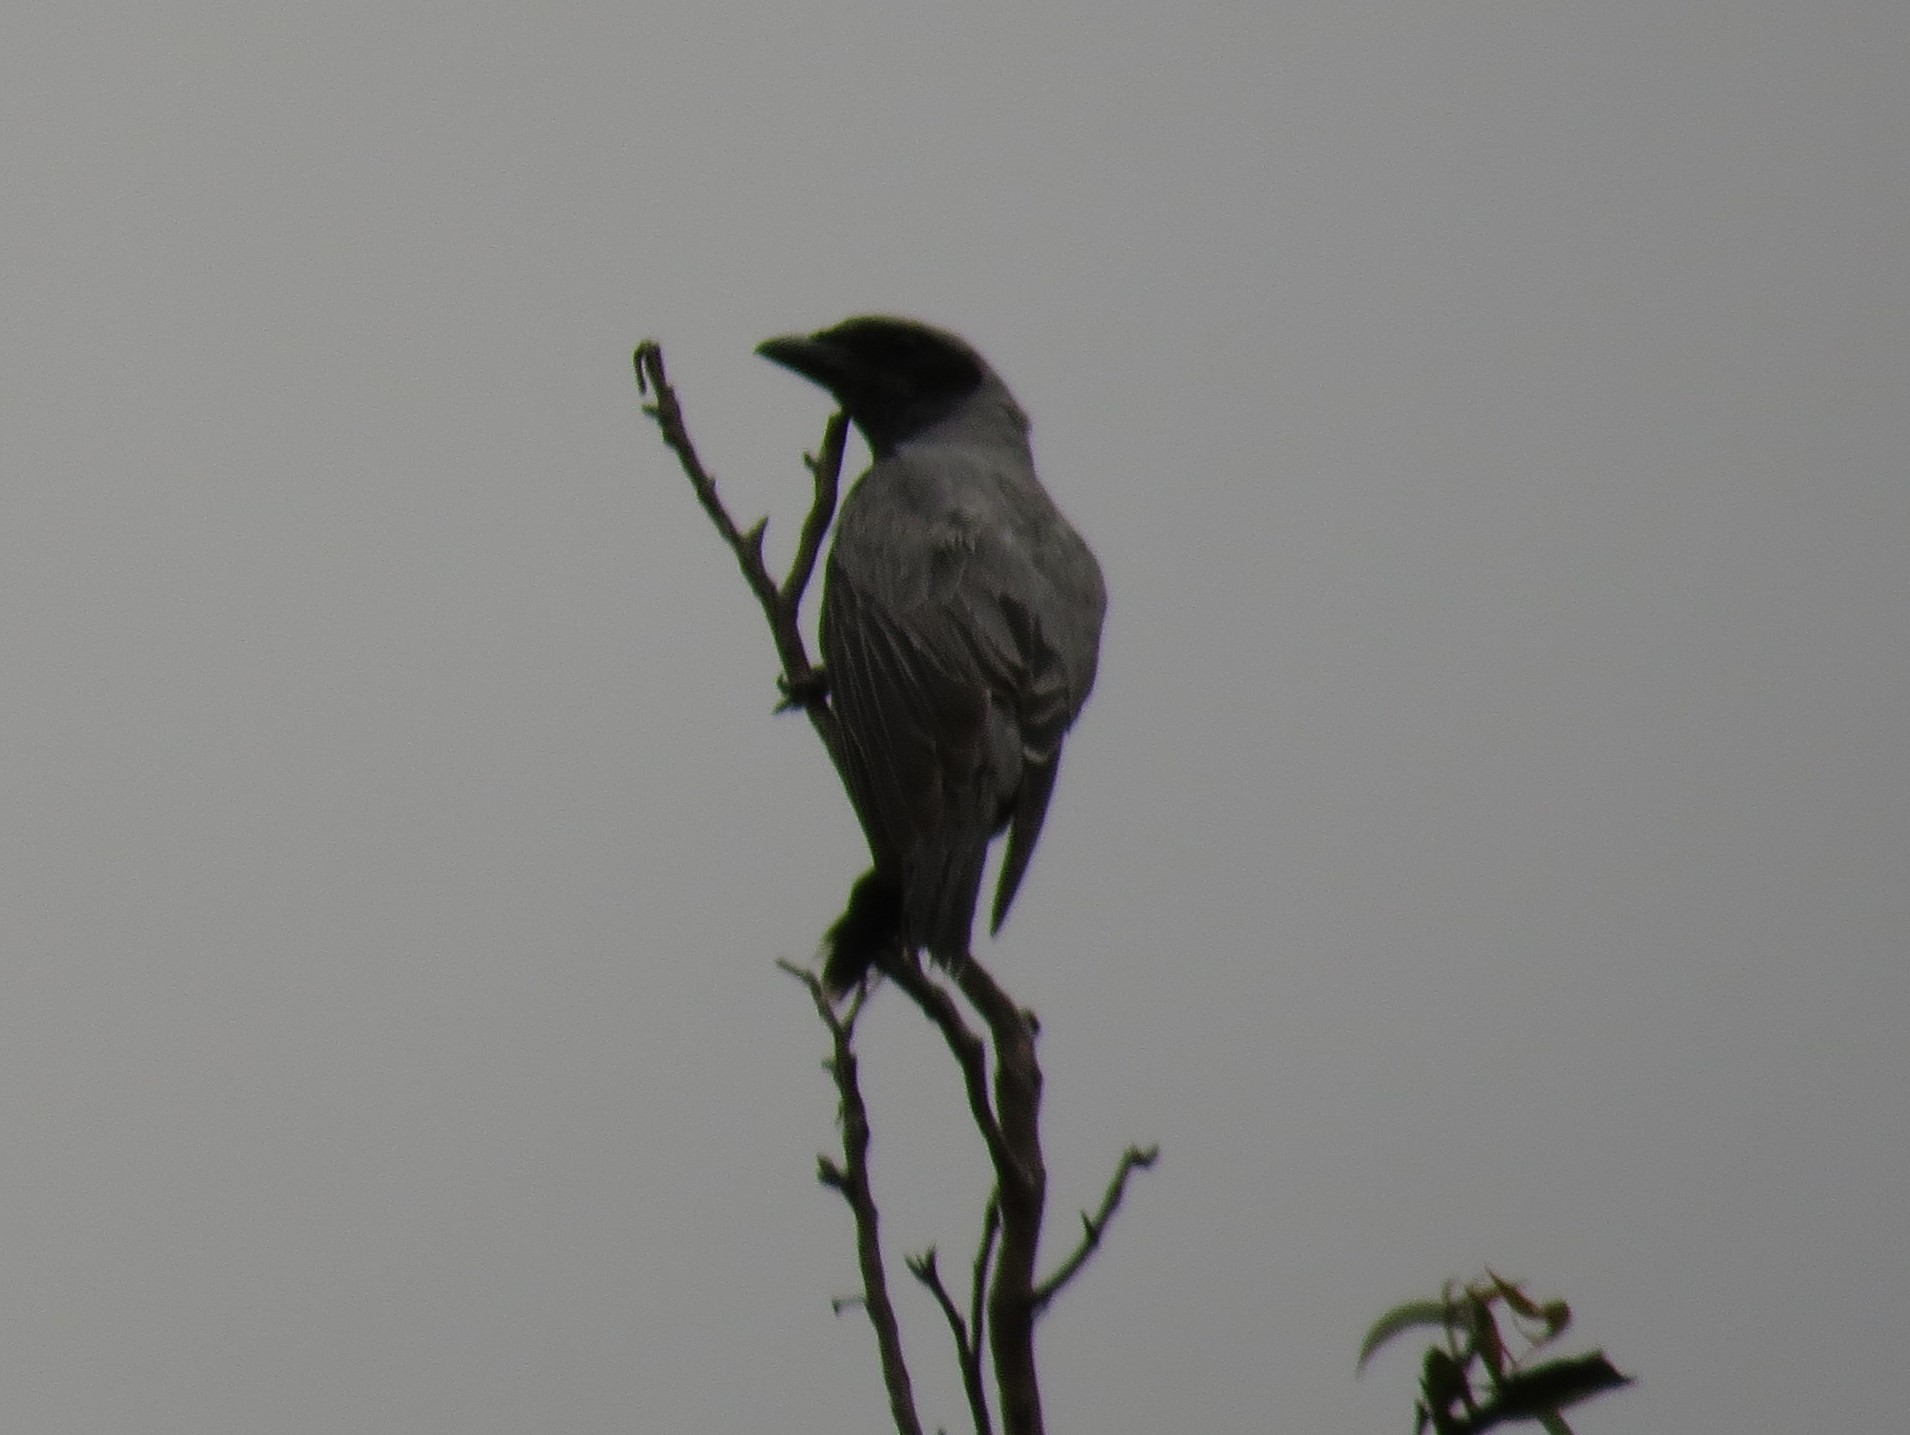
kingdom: Animalia
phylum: Chordata
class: Aves
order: Passeriformes
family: Campephagidae
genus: Coracina
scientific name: Coracina novaehollandiae
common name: Black-faced cuckooshrike
